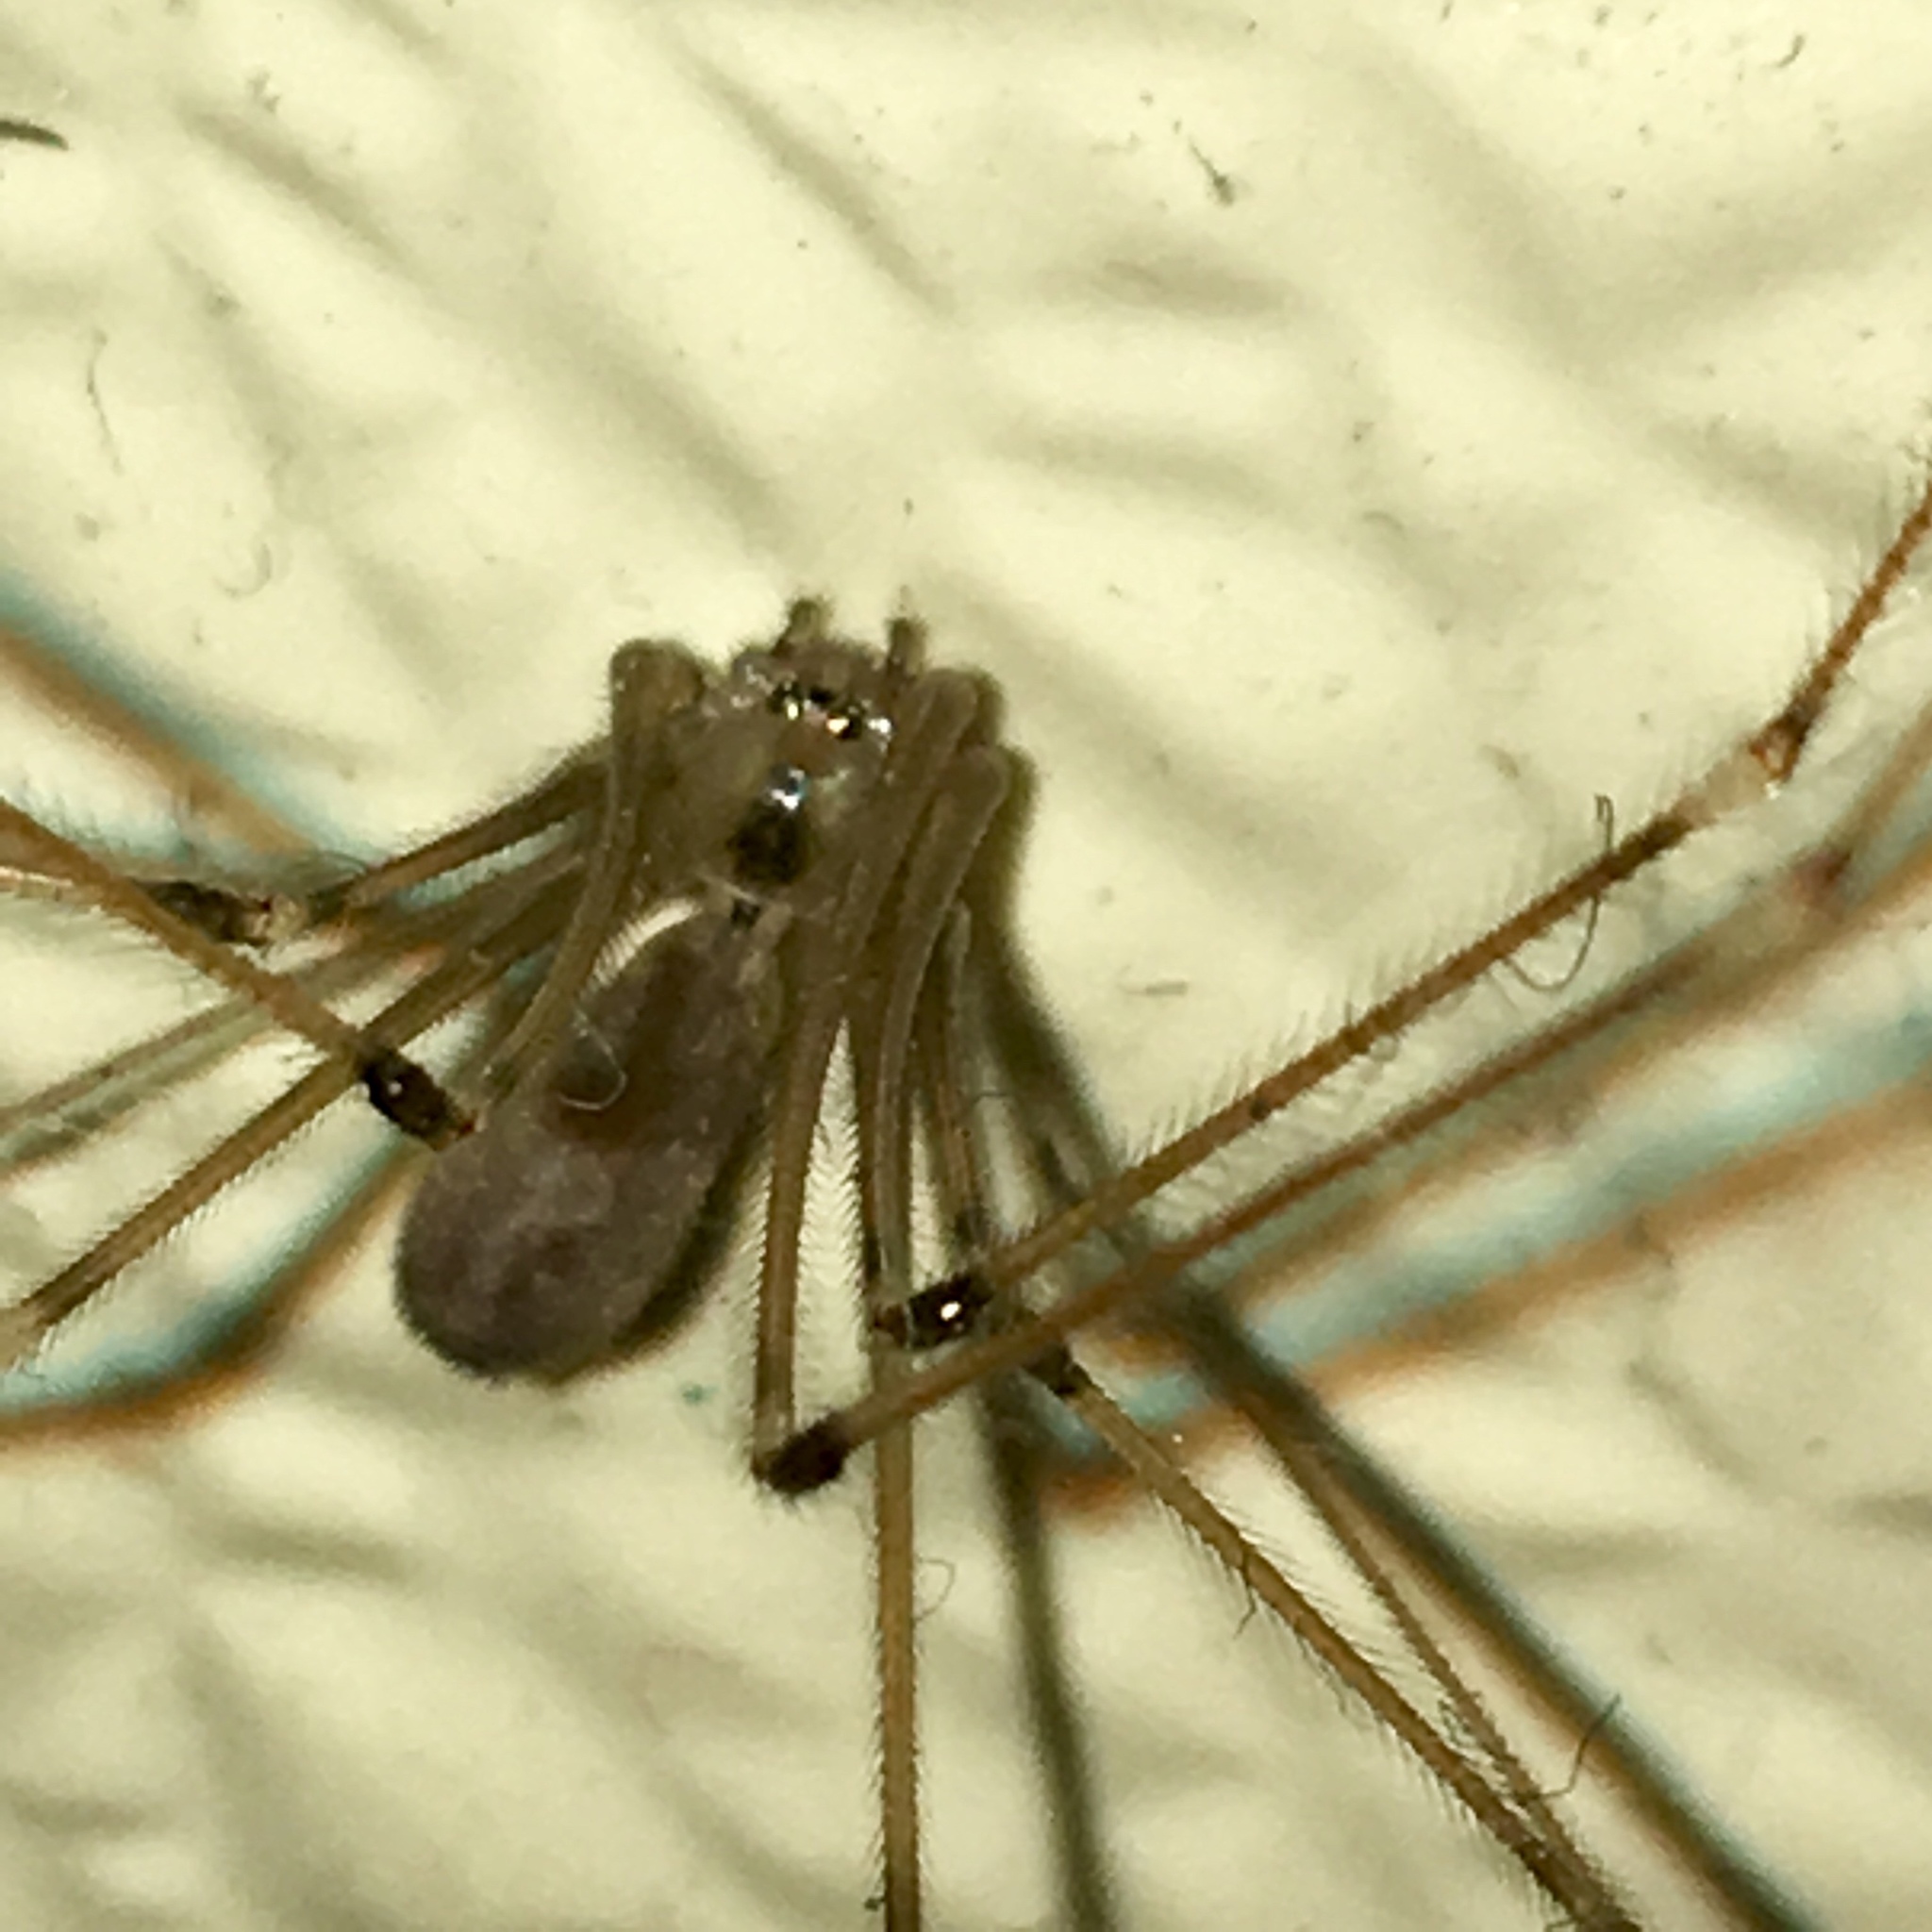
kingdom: Animalia
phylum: Arthropoda
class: Arachnida
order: Araneae
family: Pholcidae
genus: Pholcus
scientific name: Pholcus phalangioides
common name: Longbodied cellar spider
